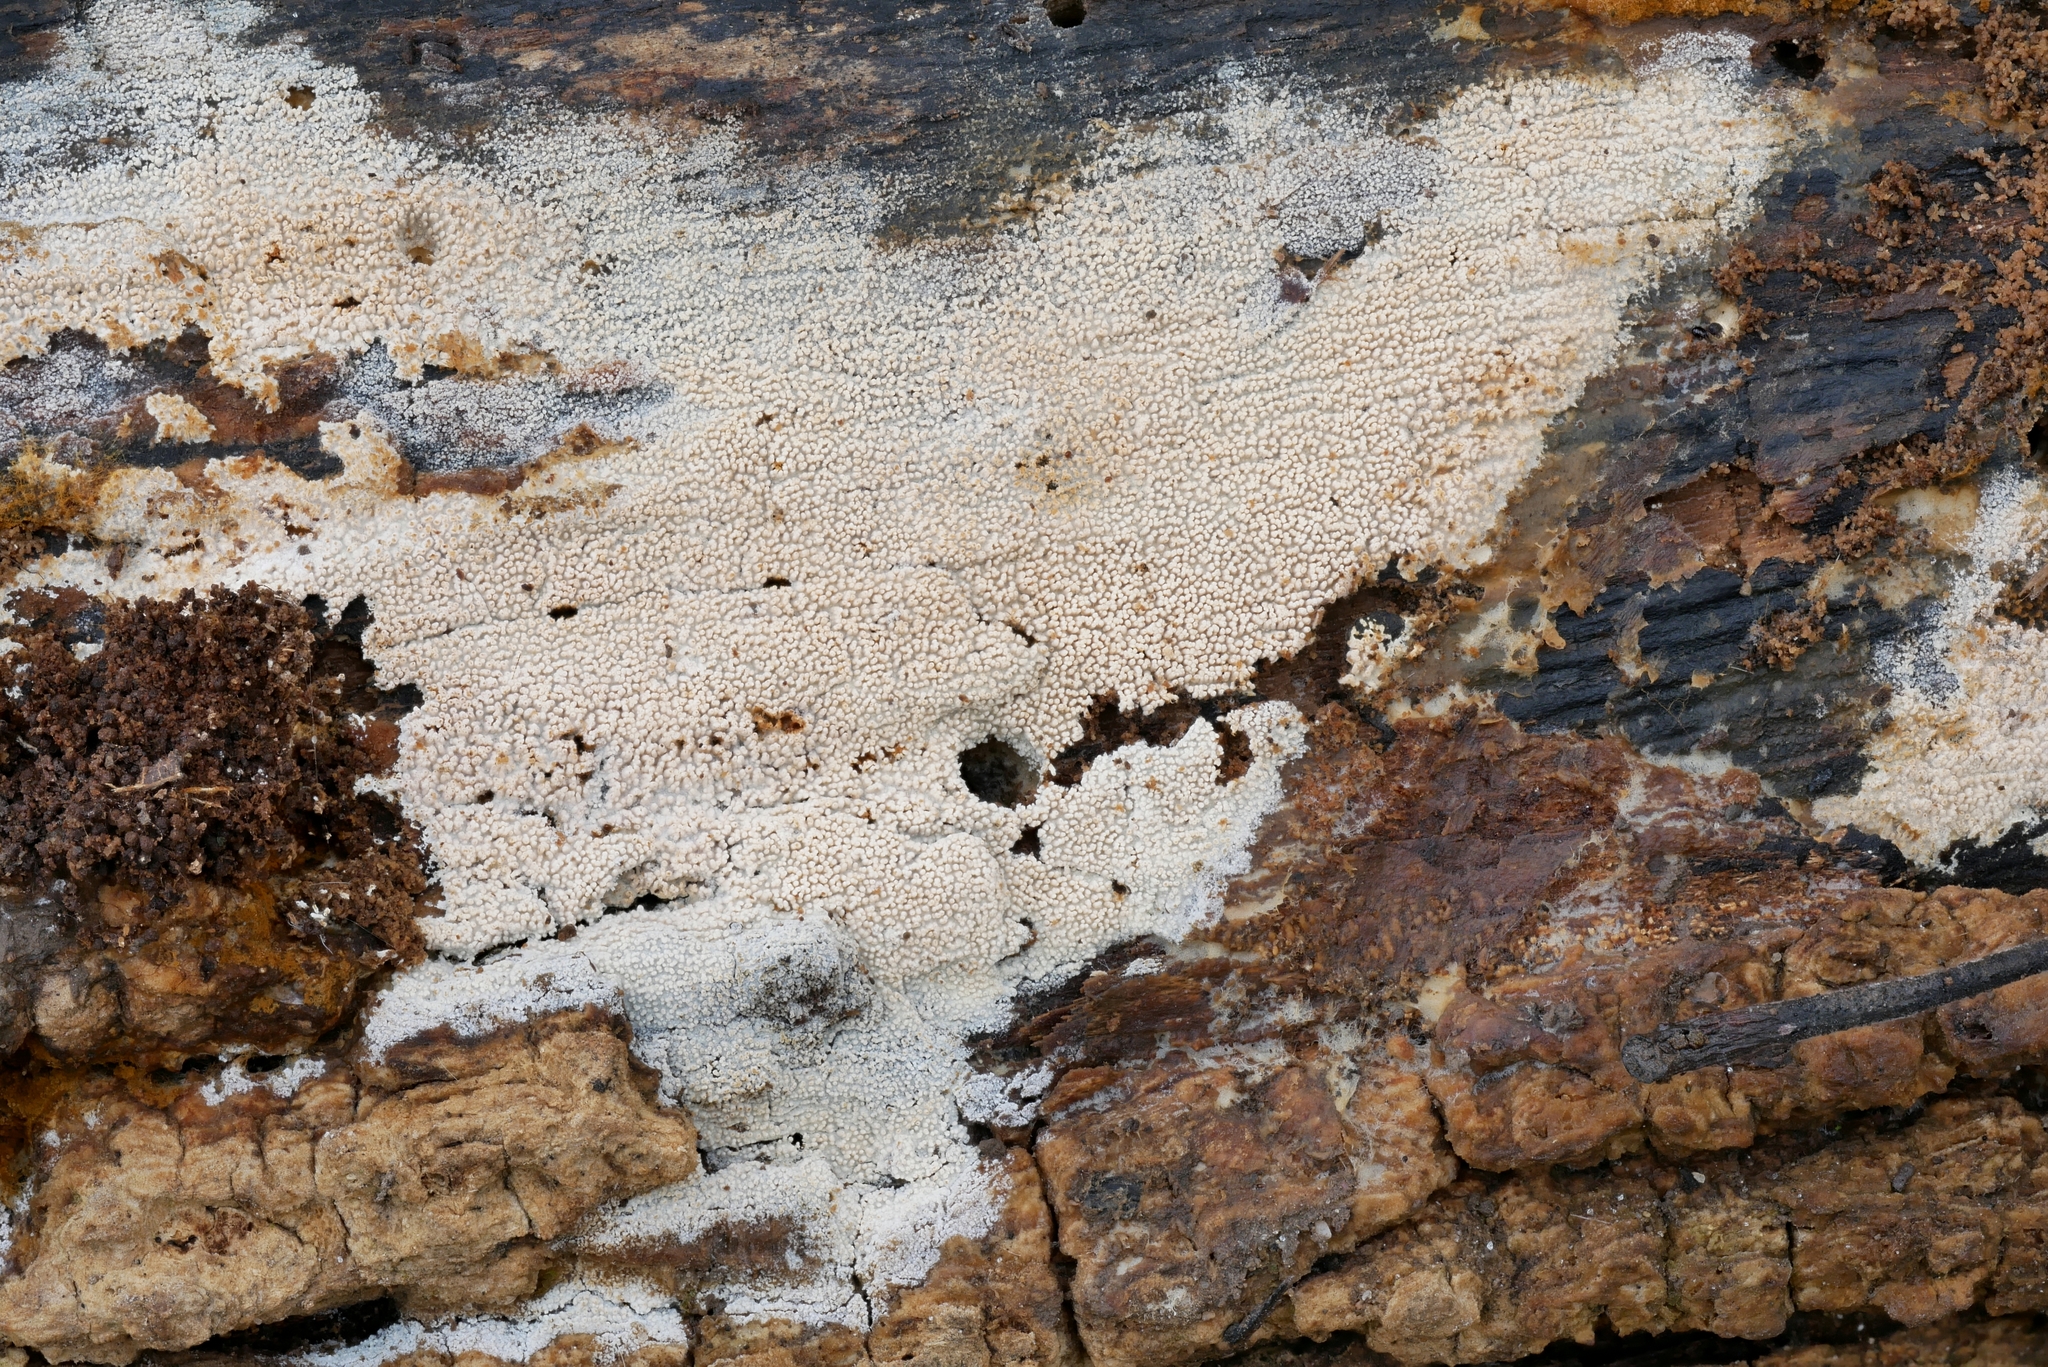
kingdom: Fungi
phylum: Basidiomycota
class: Agaricomycetes
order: Hymenochaetales
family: Hyphodontiaceae
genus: Hyphodontia
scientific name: Hyphodontia arguta
